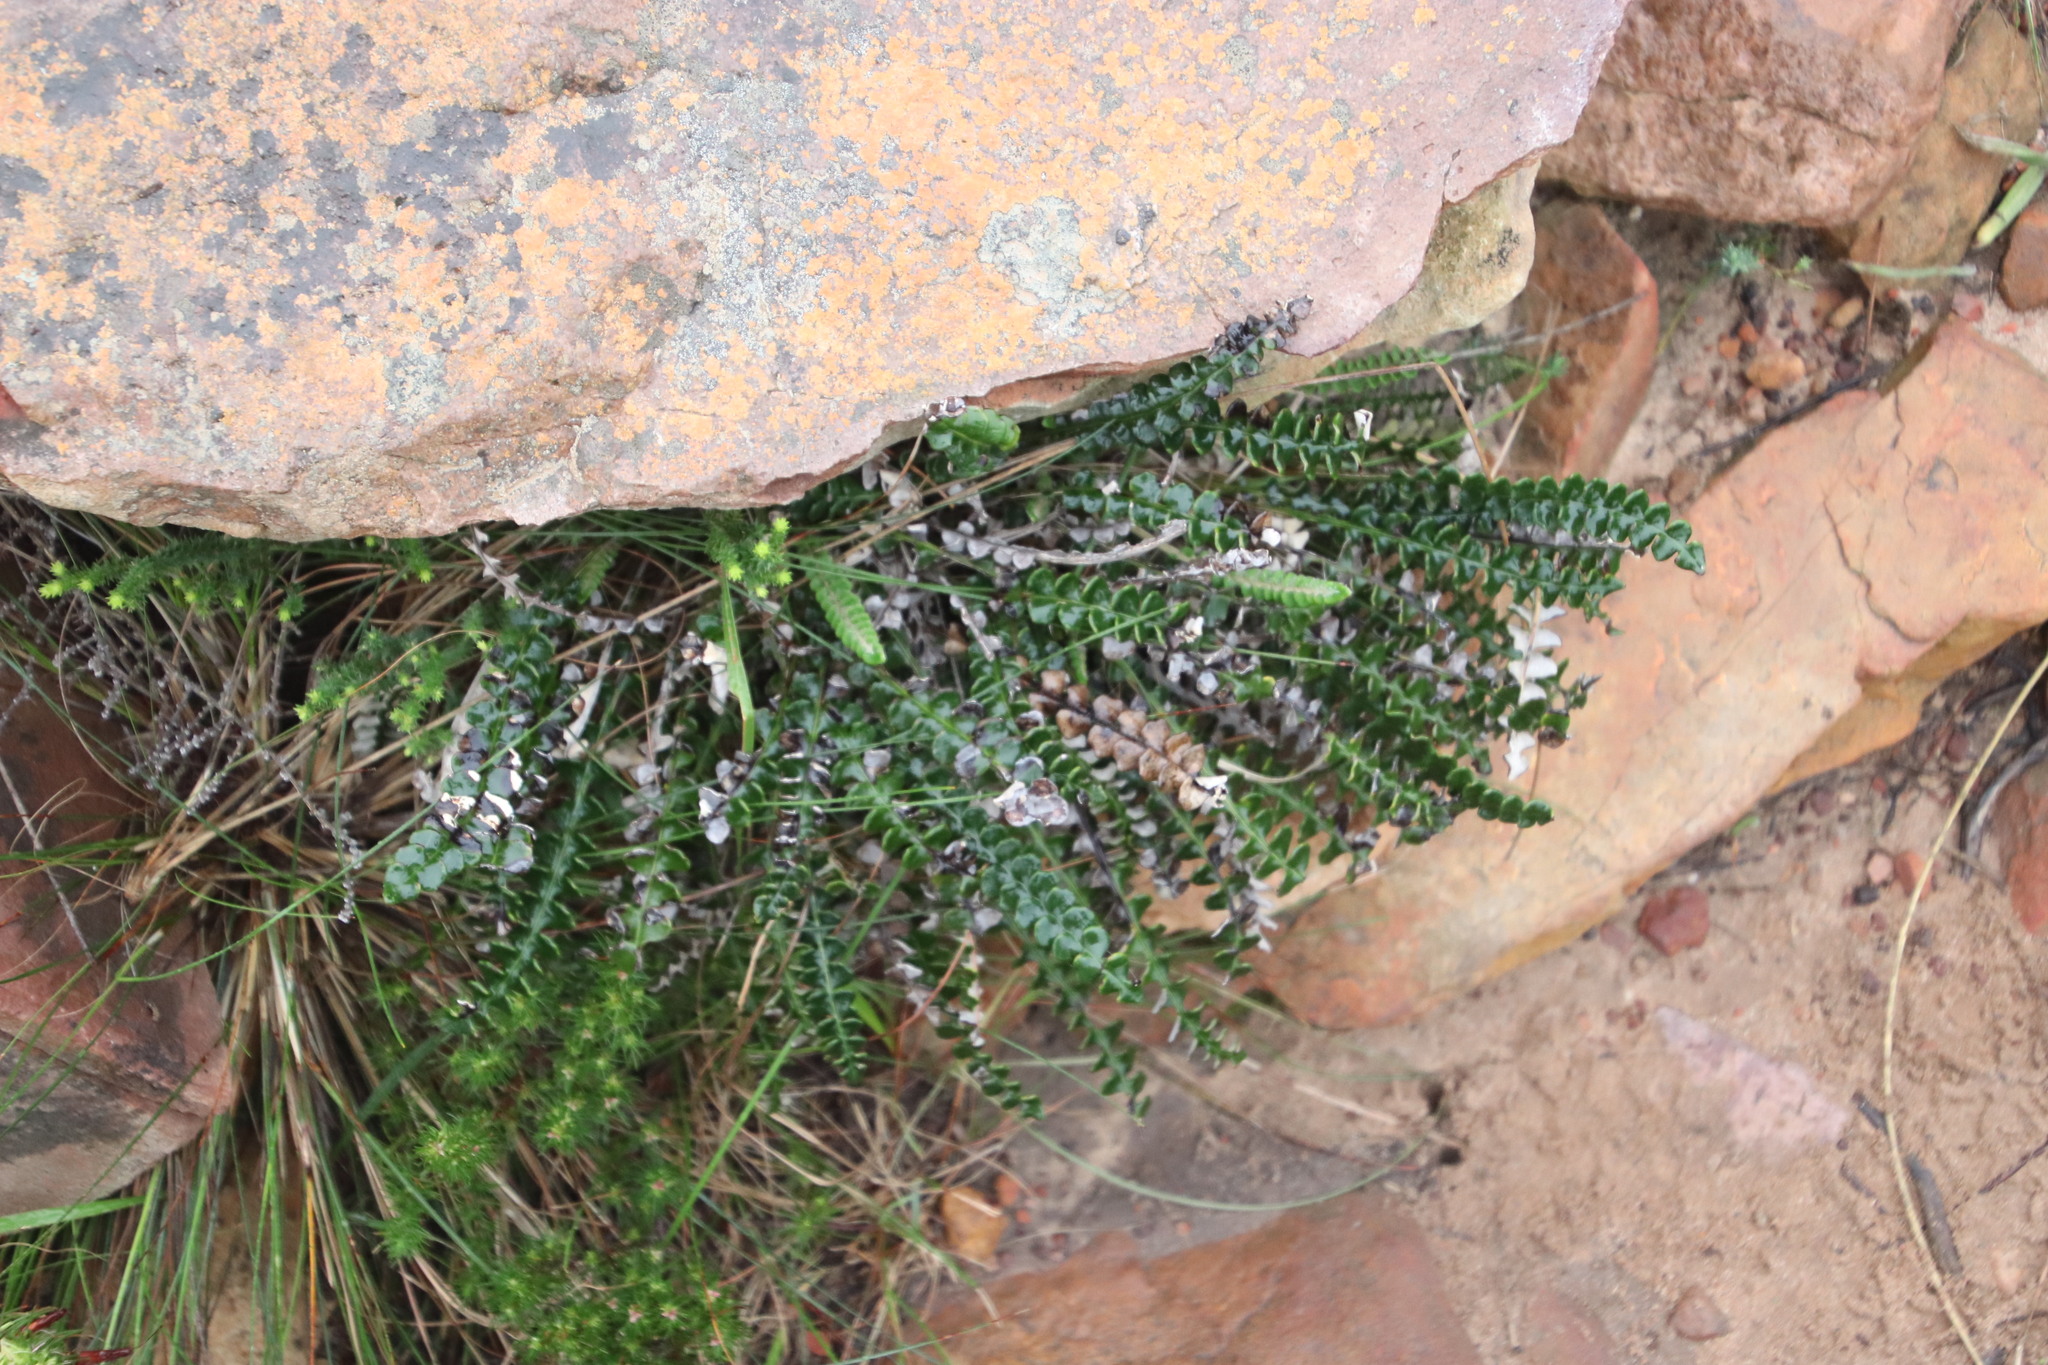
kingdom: Plantae
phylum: Tracheophyta
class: Magnoliopsida
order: Asterales
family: Asteraceae
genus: Gerbera
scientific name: Gerbera linnaei
